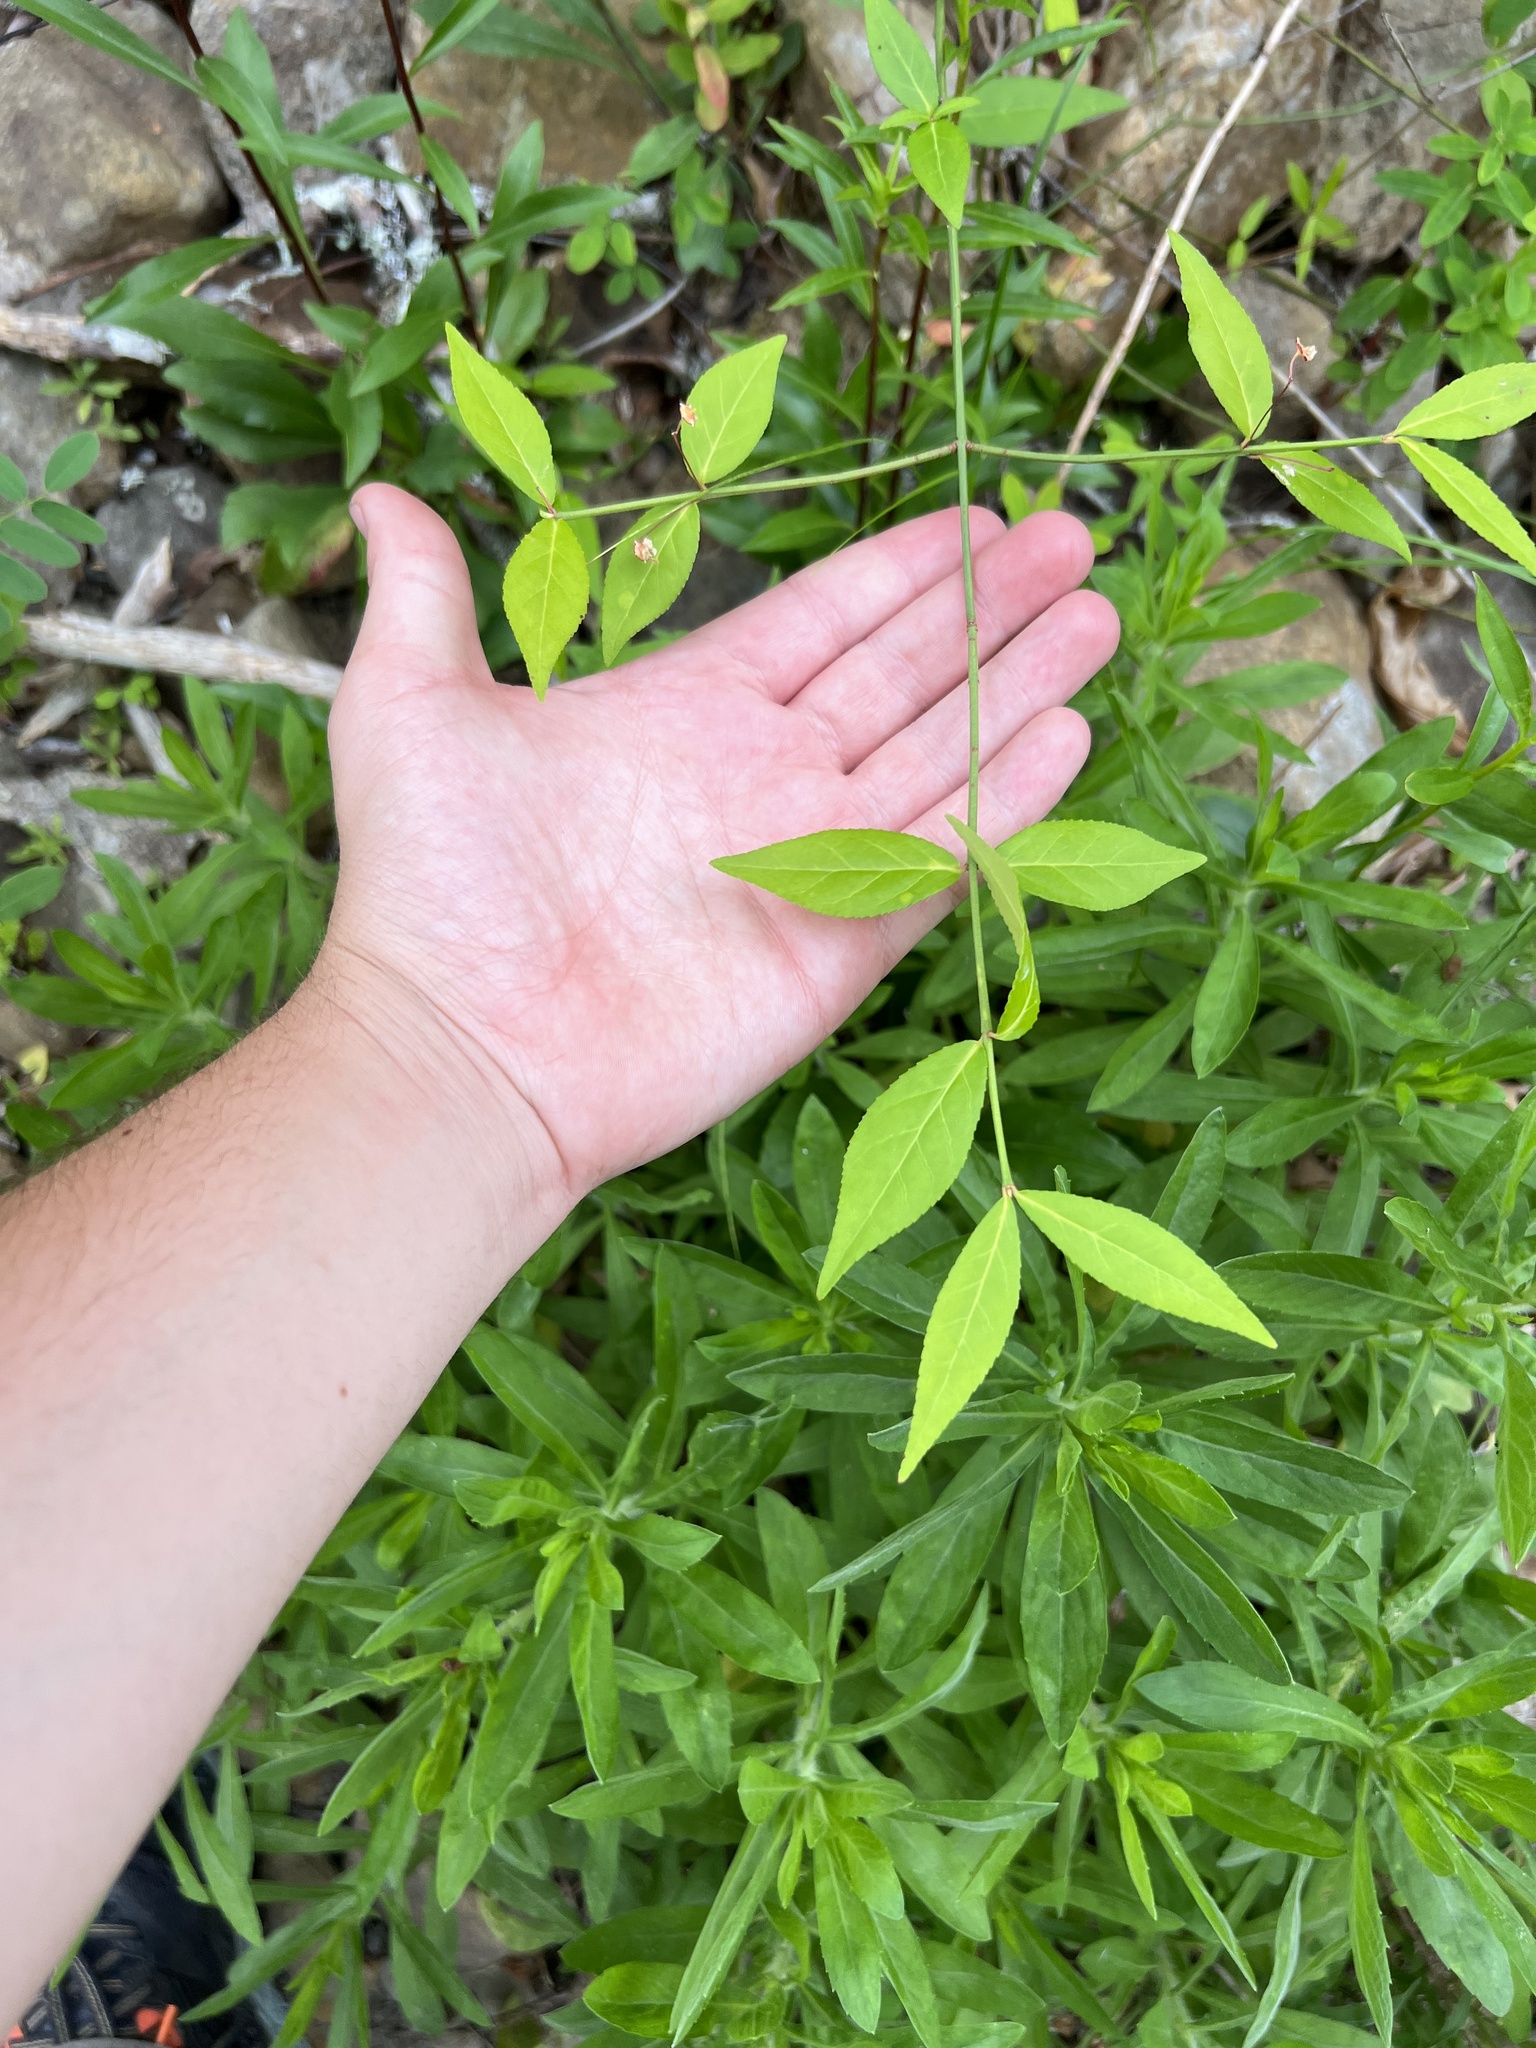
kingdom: Plantae
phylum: Tracheophyta
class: Magnoliopsida
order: Celastrales
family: Celastraceae
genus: Euonymus
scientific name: Euonymus americanus
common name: Bursting-heart
